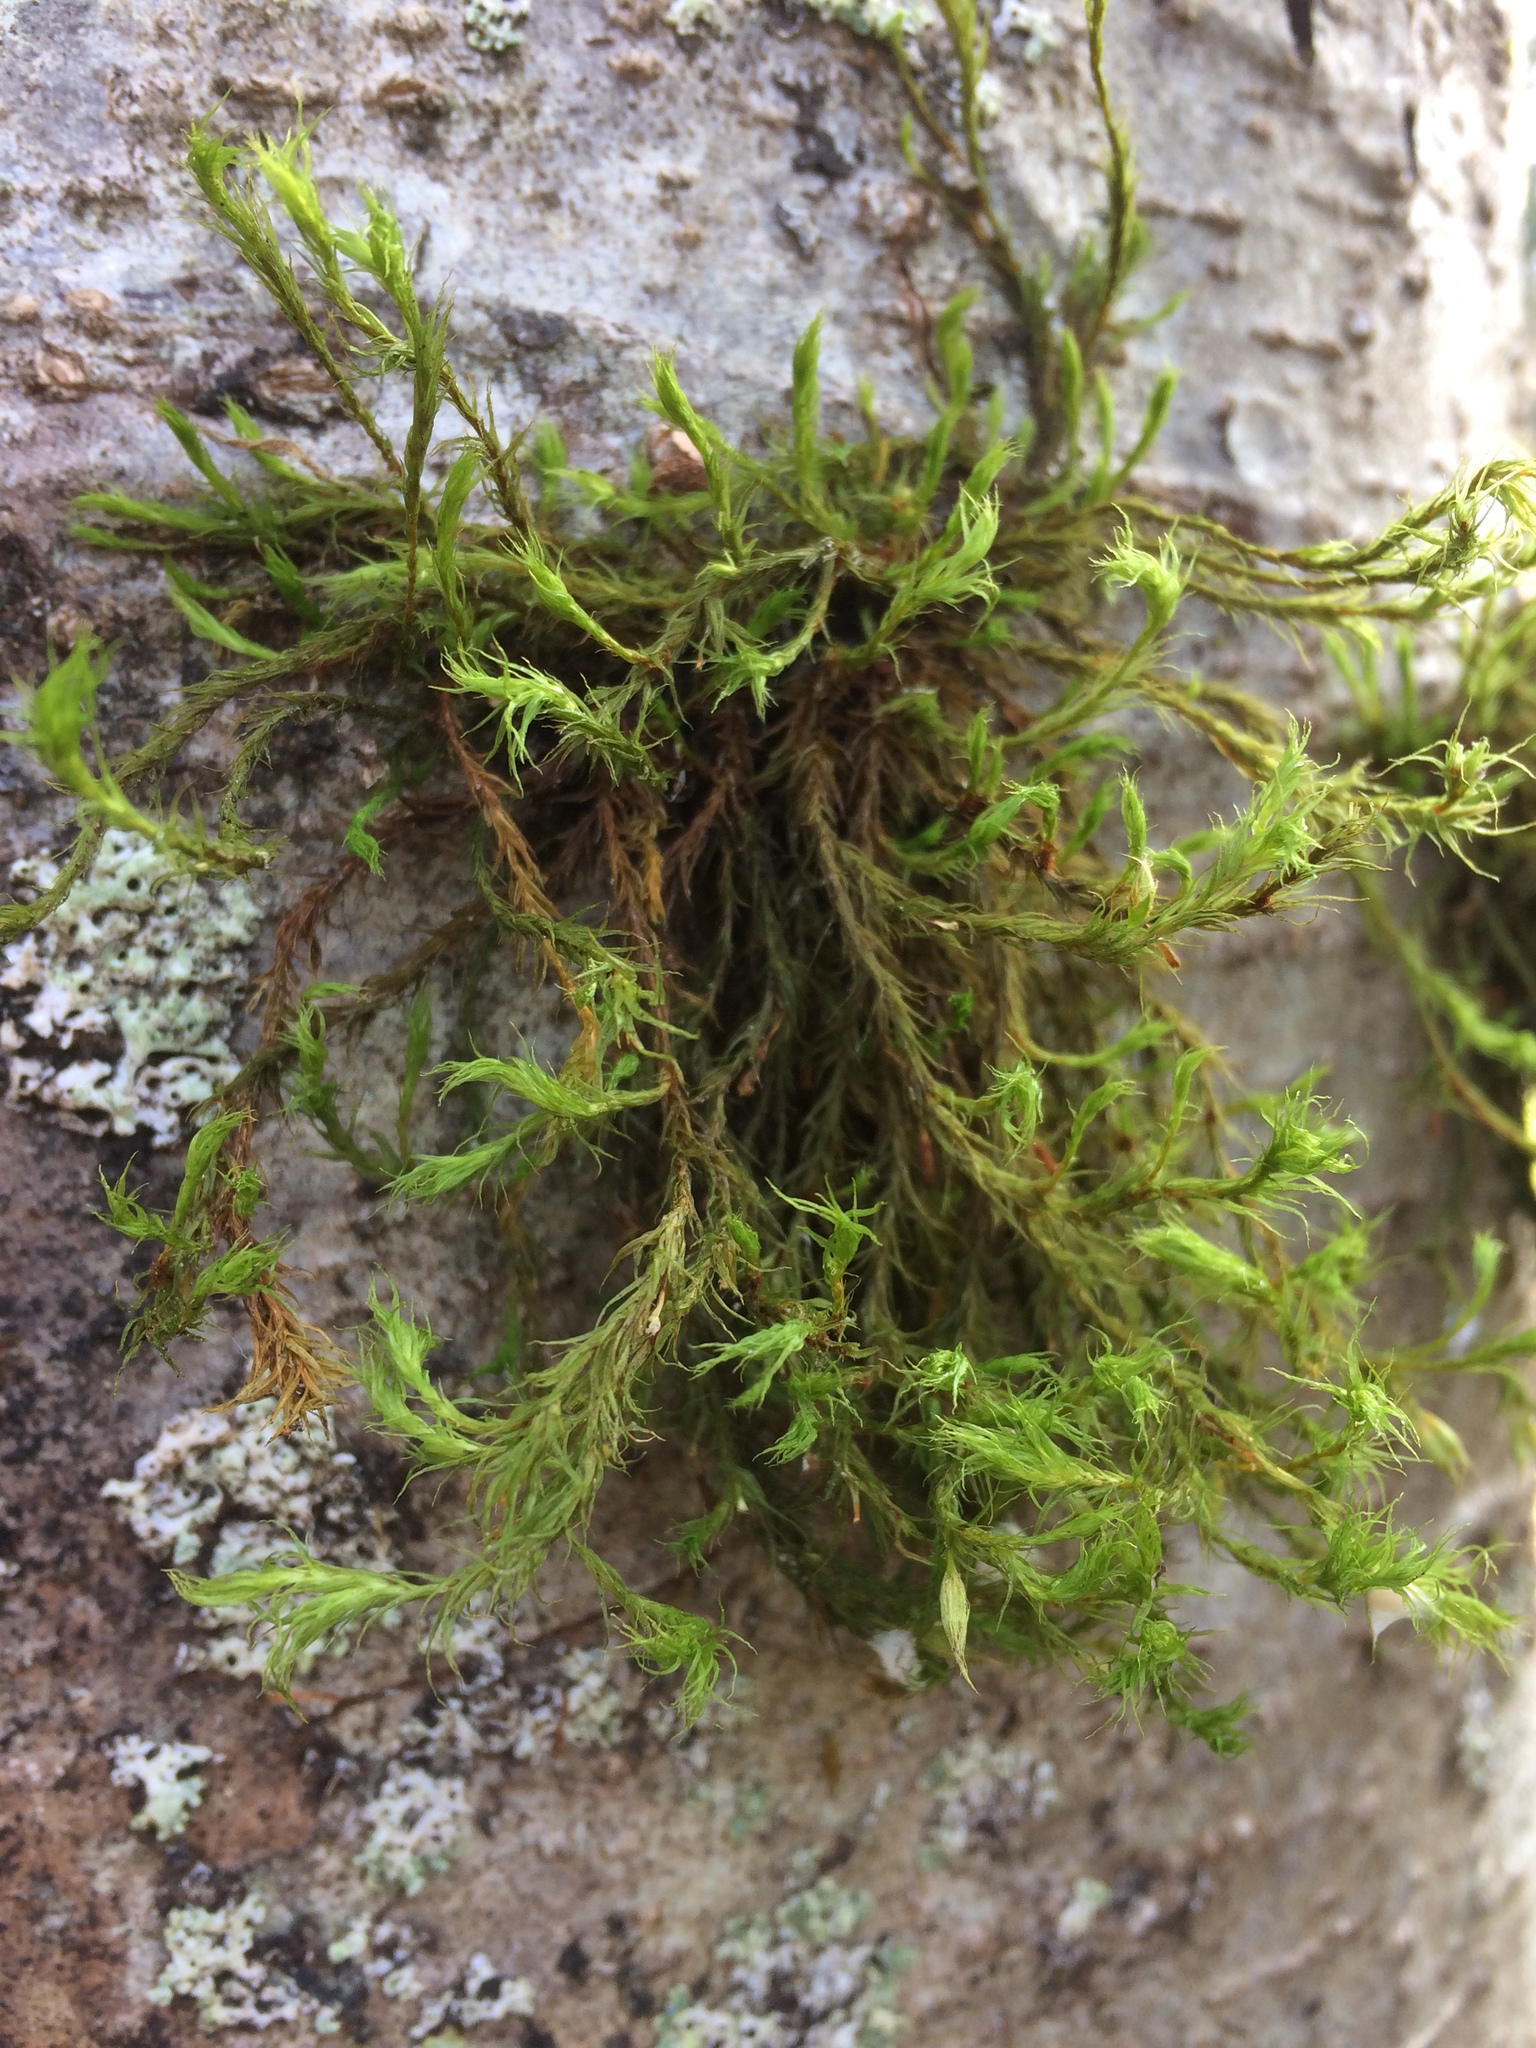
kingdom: Plantae
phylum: Bryophyta
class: Bryopsida
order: Orthotrichales
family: Orthotrichaceae
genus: Pulvigera
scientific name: Pulvigera lyellii
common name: Lyell's bristle-moss
